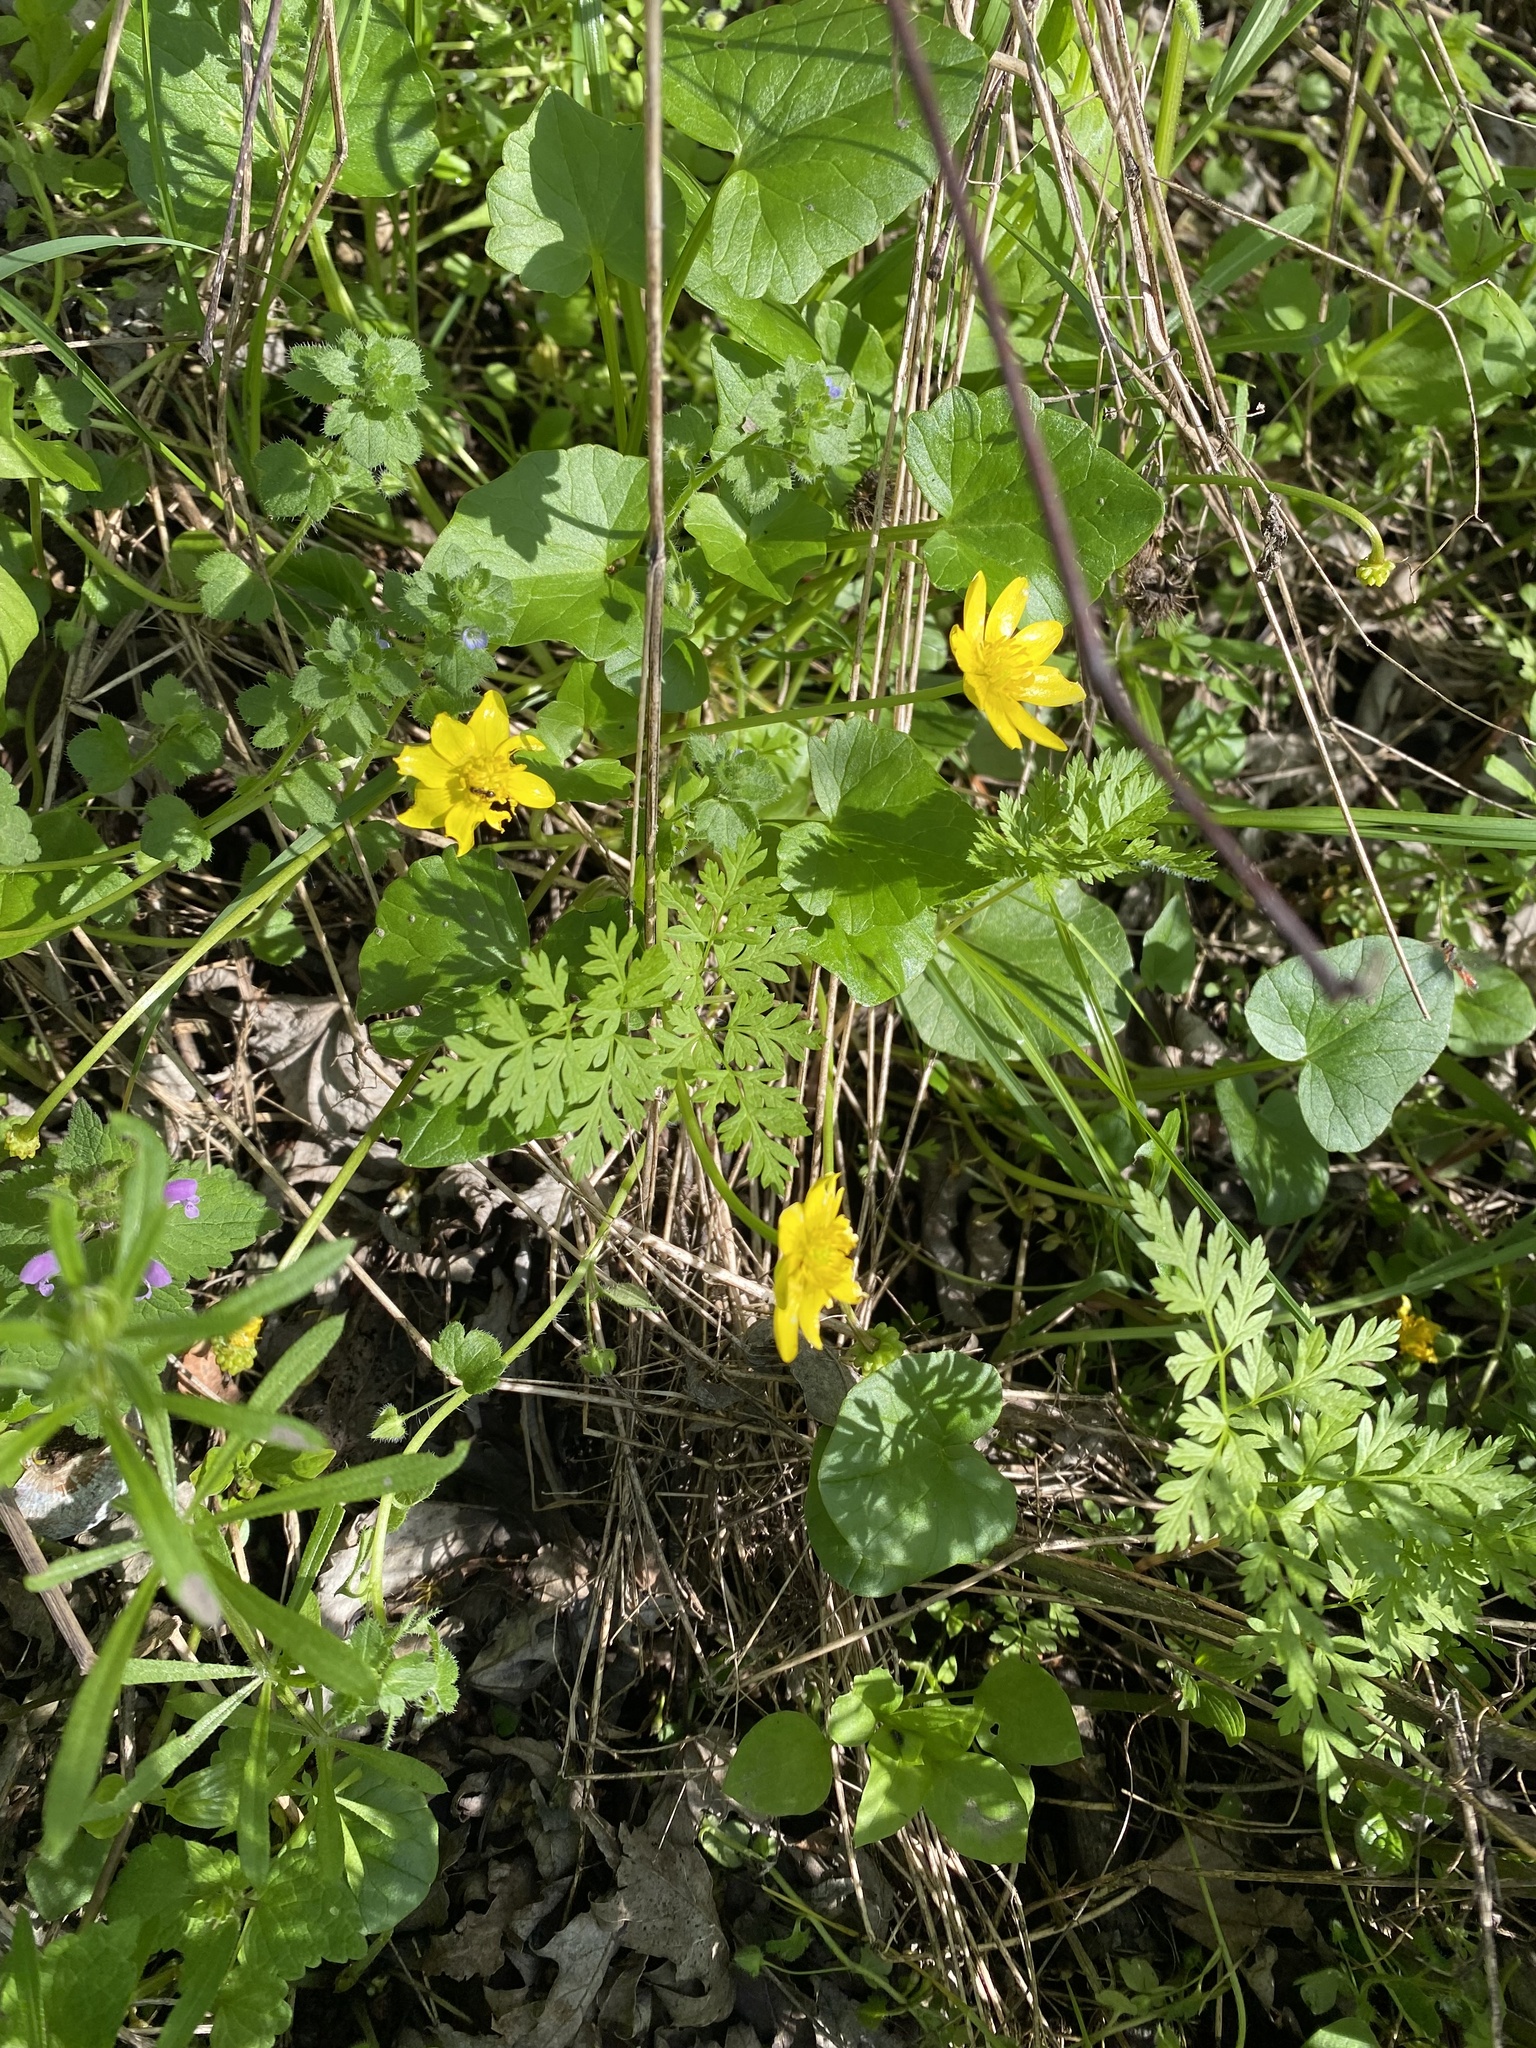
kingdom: Plantae
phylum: Tracheophyta
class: Magnoliopsida
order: Ranunculales
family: Ranunculaceae
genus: Ficaria
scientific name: Ficaria verna
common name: Lesser celandine
